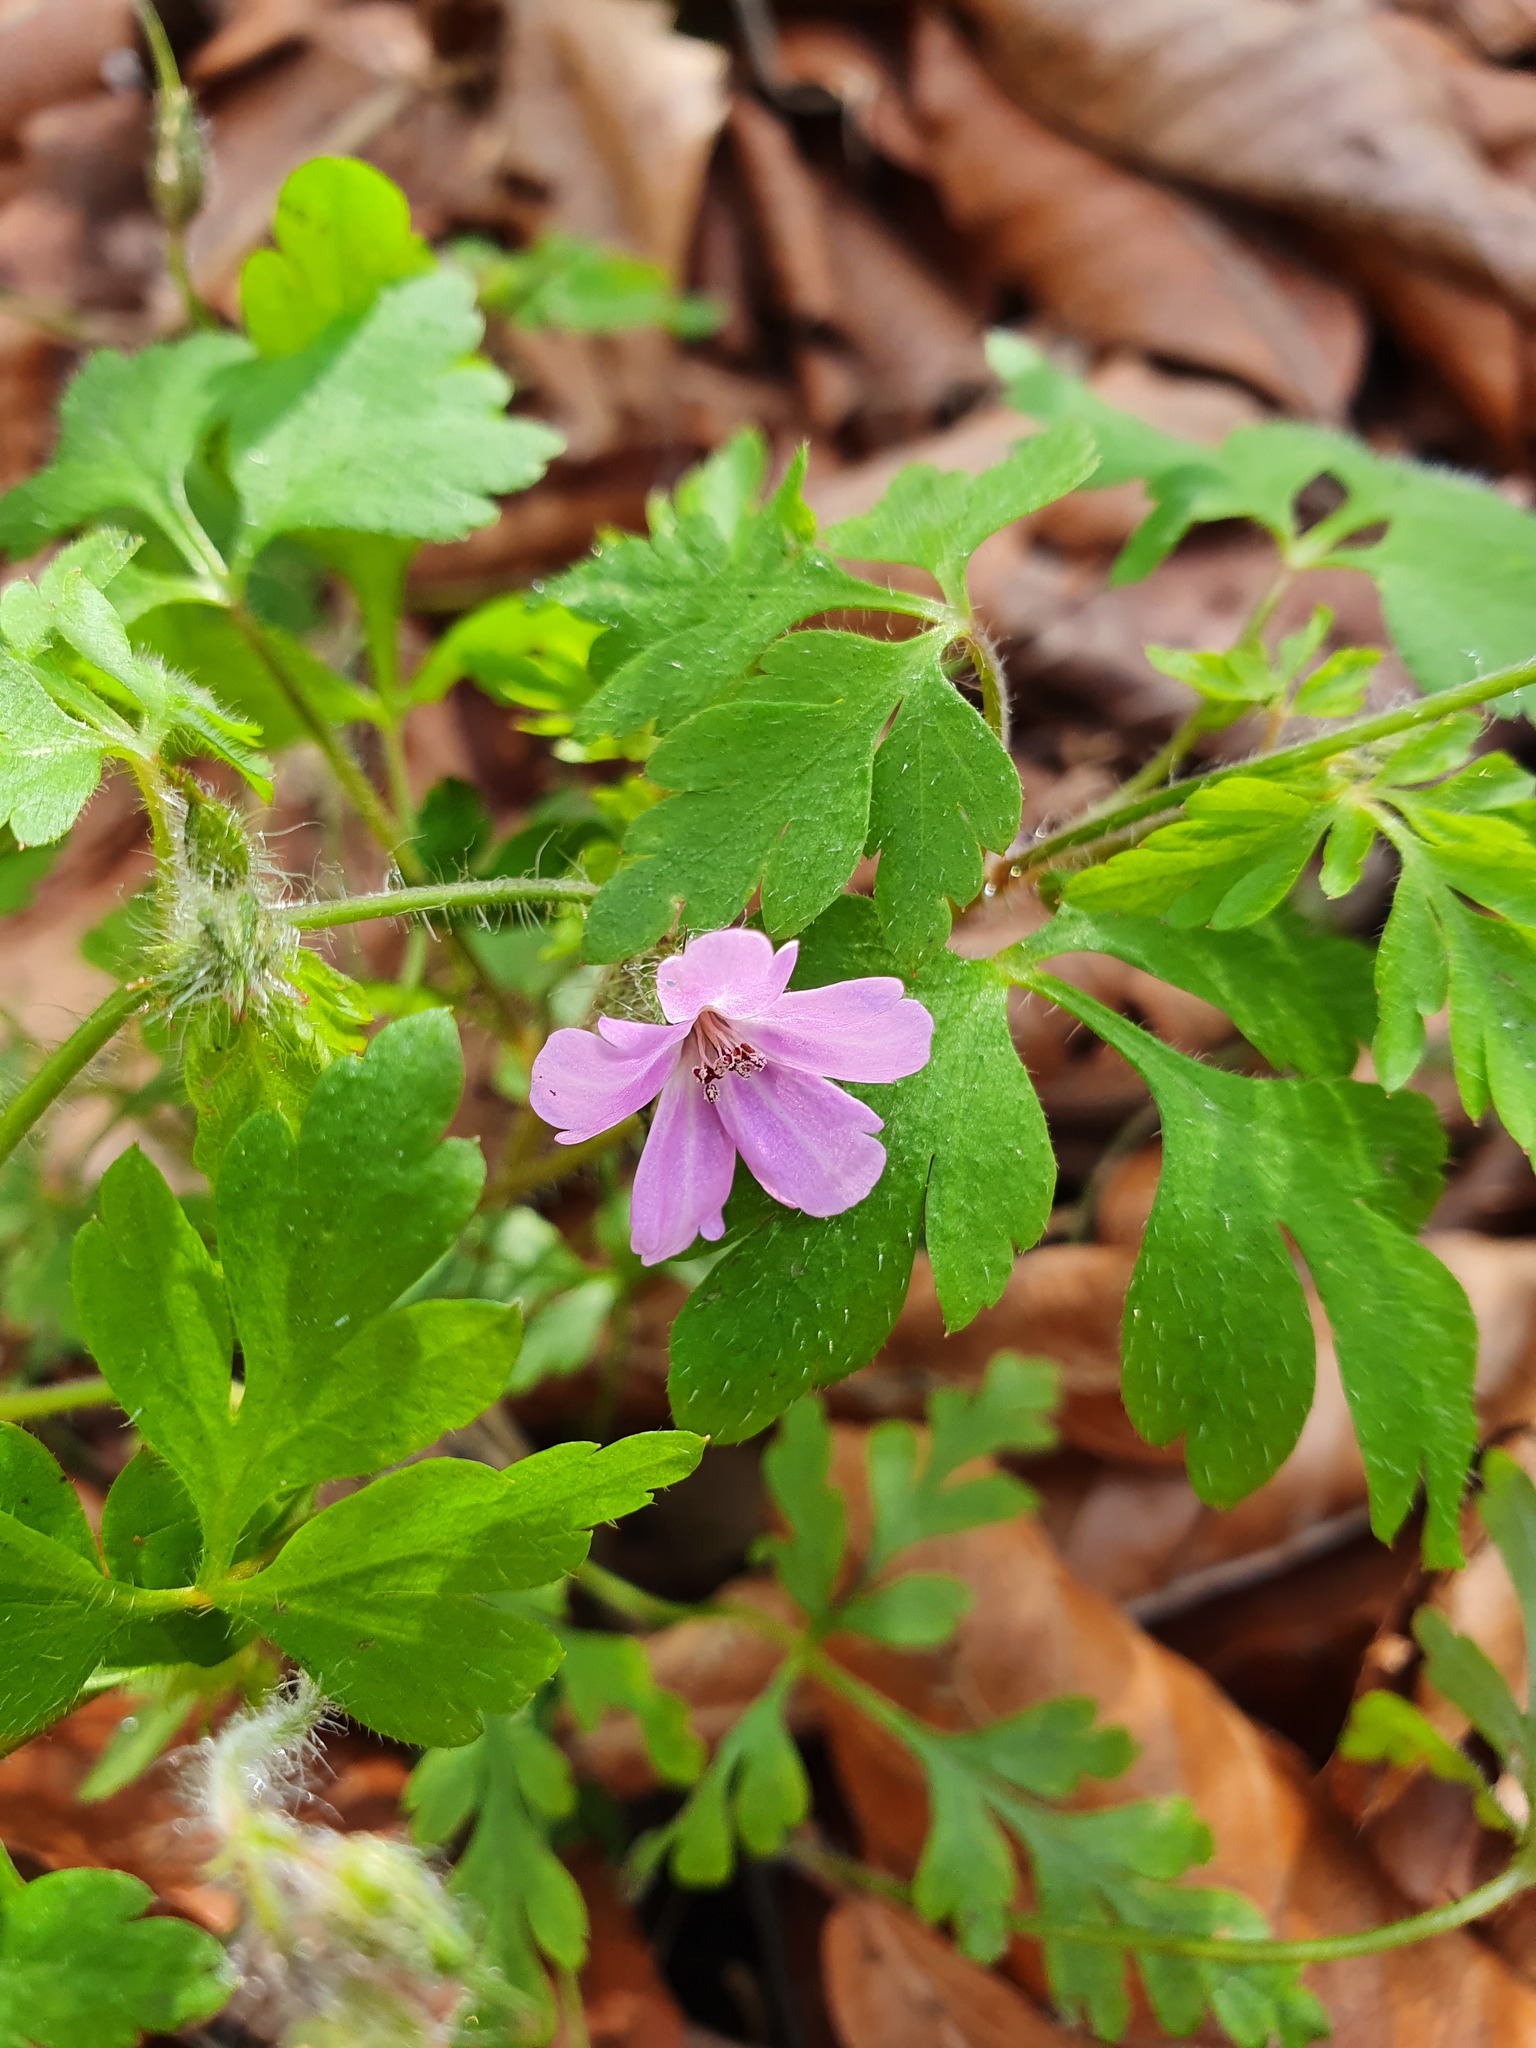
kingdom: Plantae
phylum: Tracheophyta
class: Magnoliopsida
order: Geraniales
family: Geraniaceae
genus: Geranium
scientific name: Geranium robertianum
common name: Herb-robert
